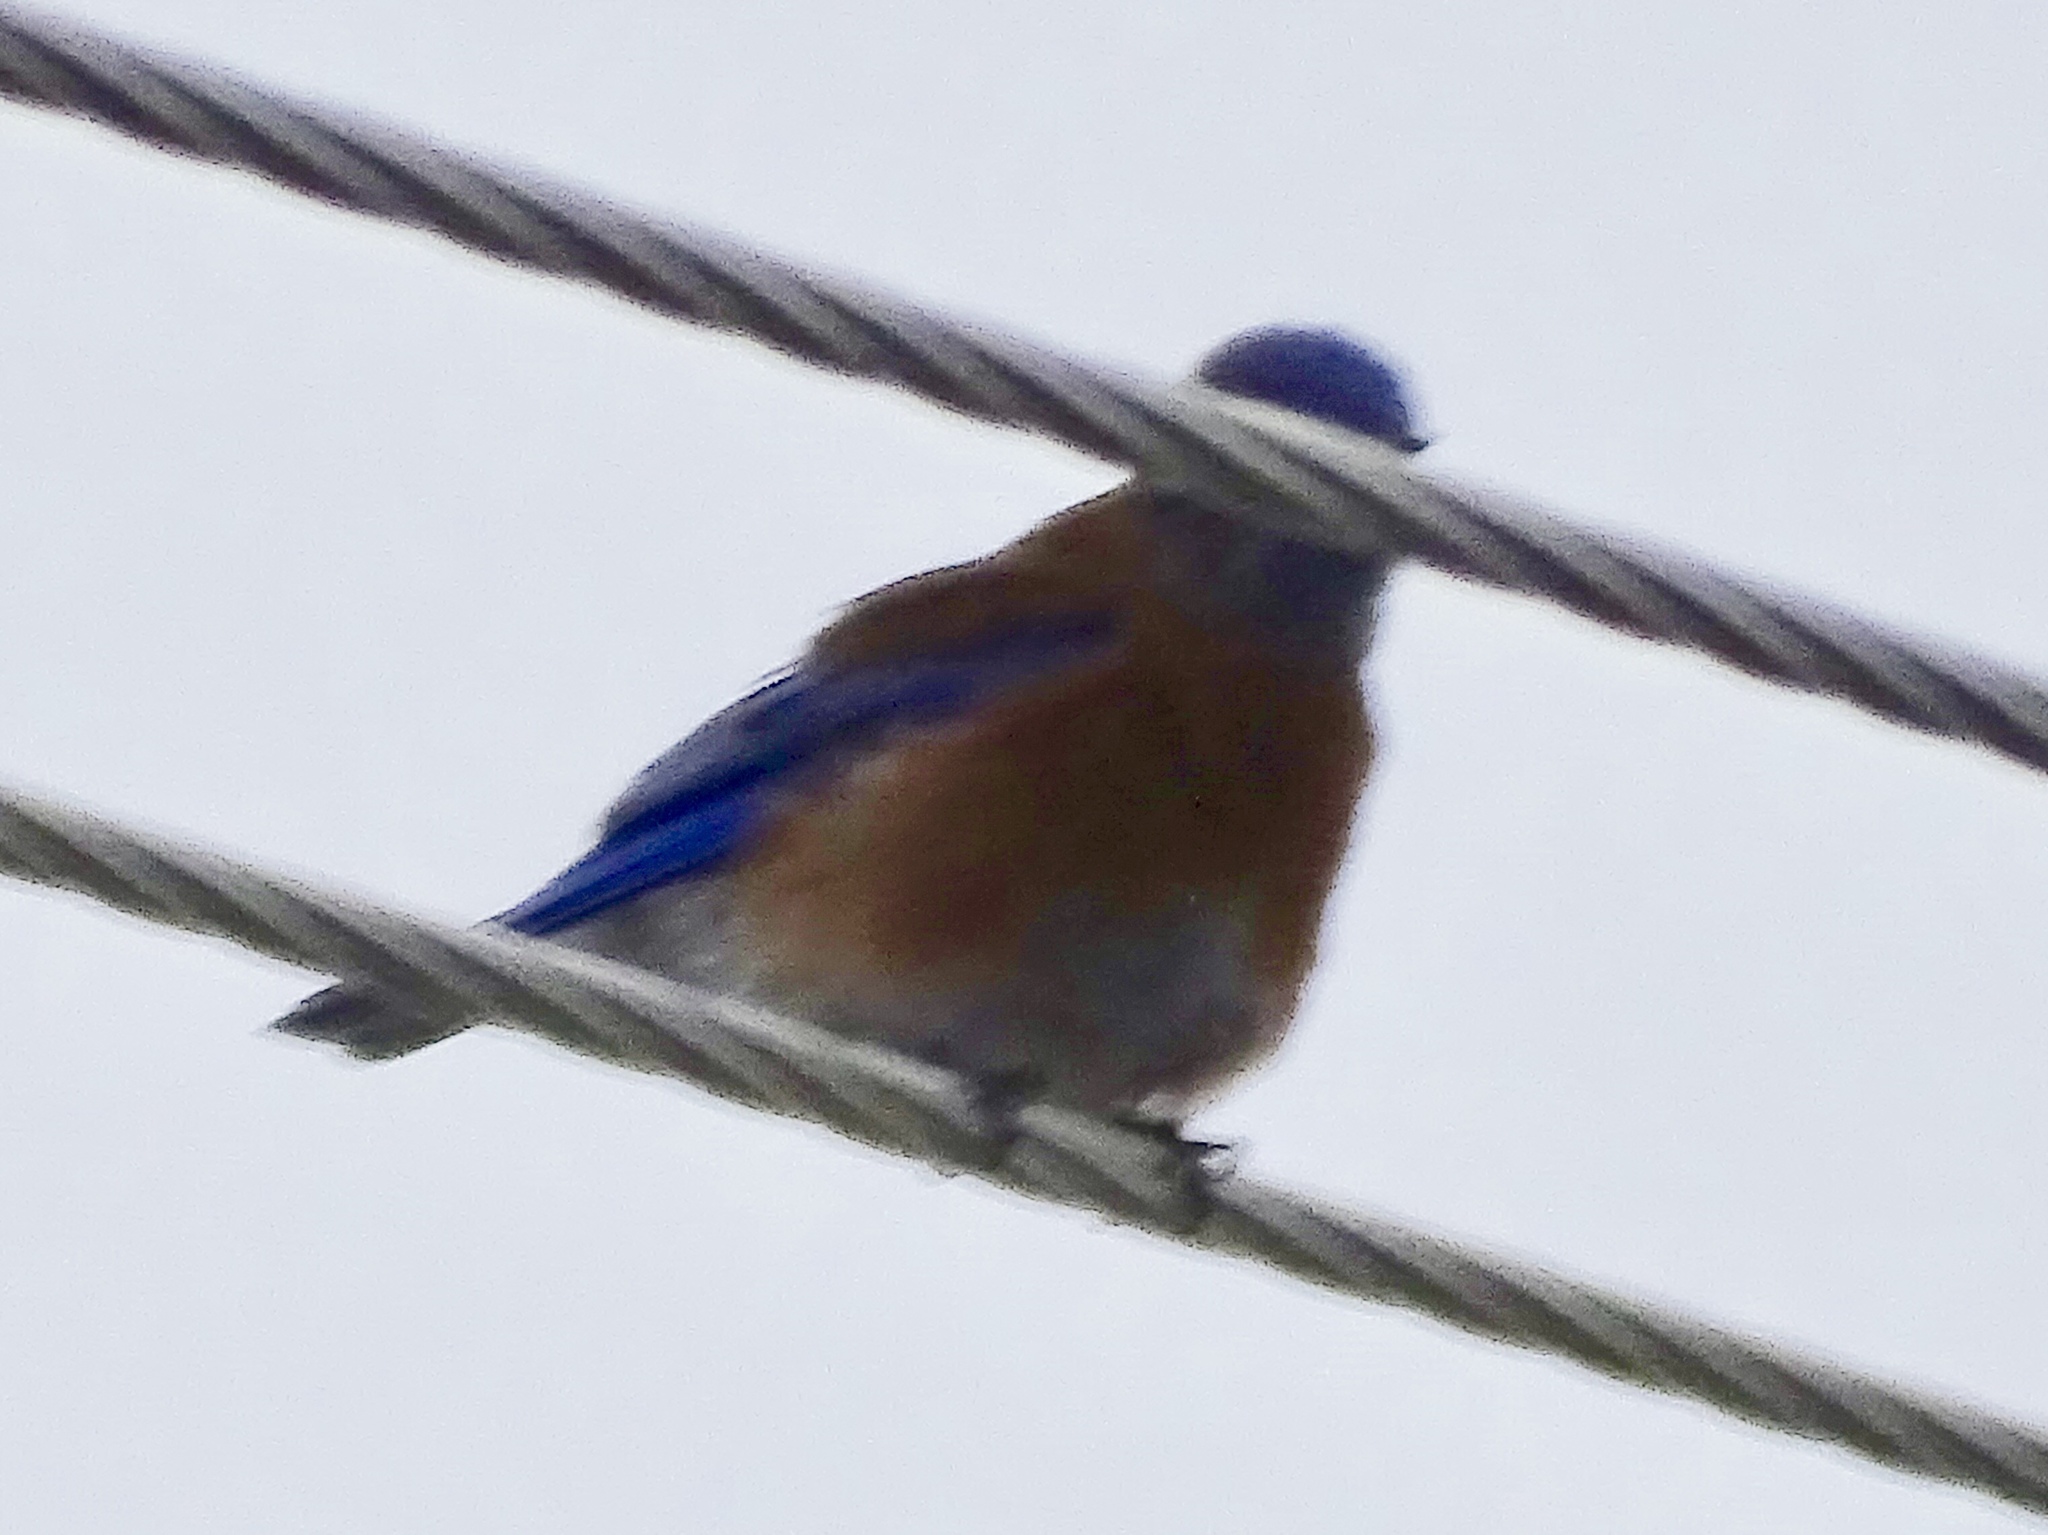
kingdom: Animalia
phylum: Chordata
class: Aves
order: Passeriformes
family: Turdidae
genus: Sialia
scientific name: Sialia mexicana
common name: Western bluebird
